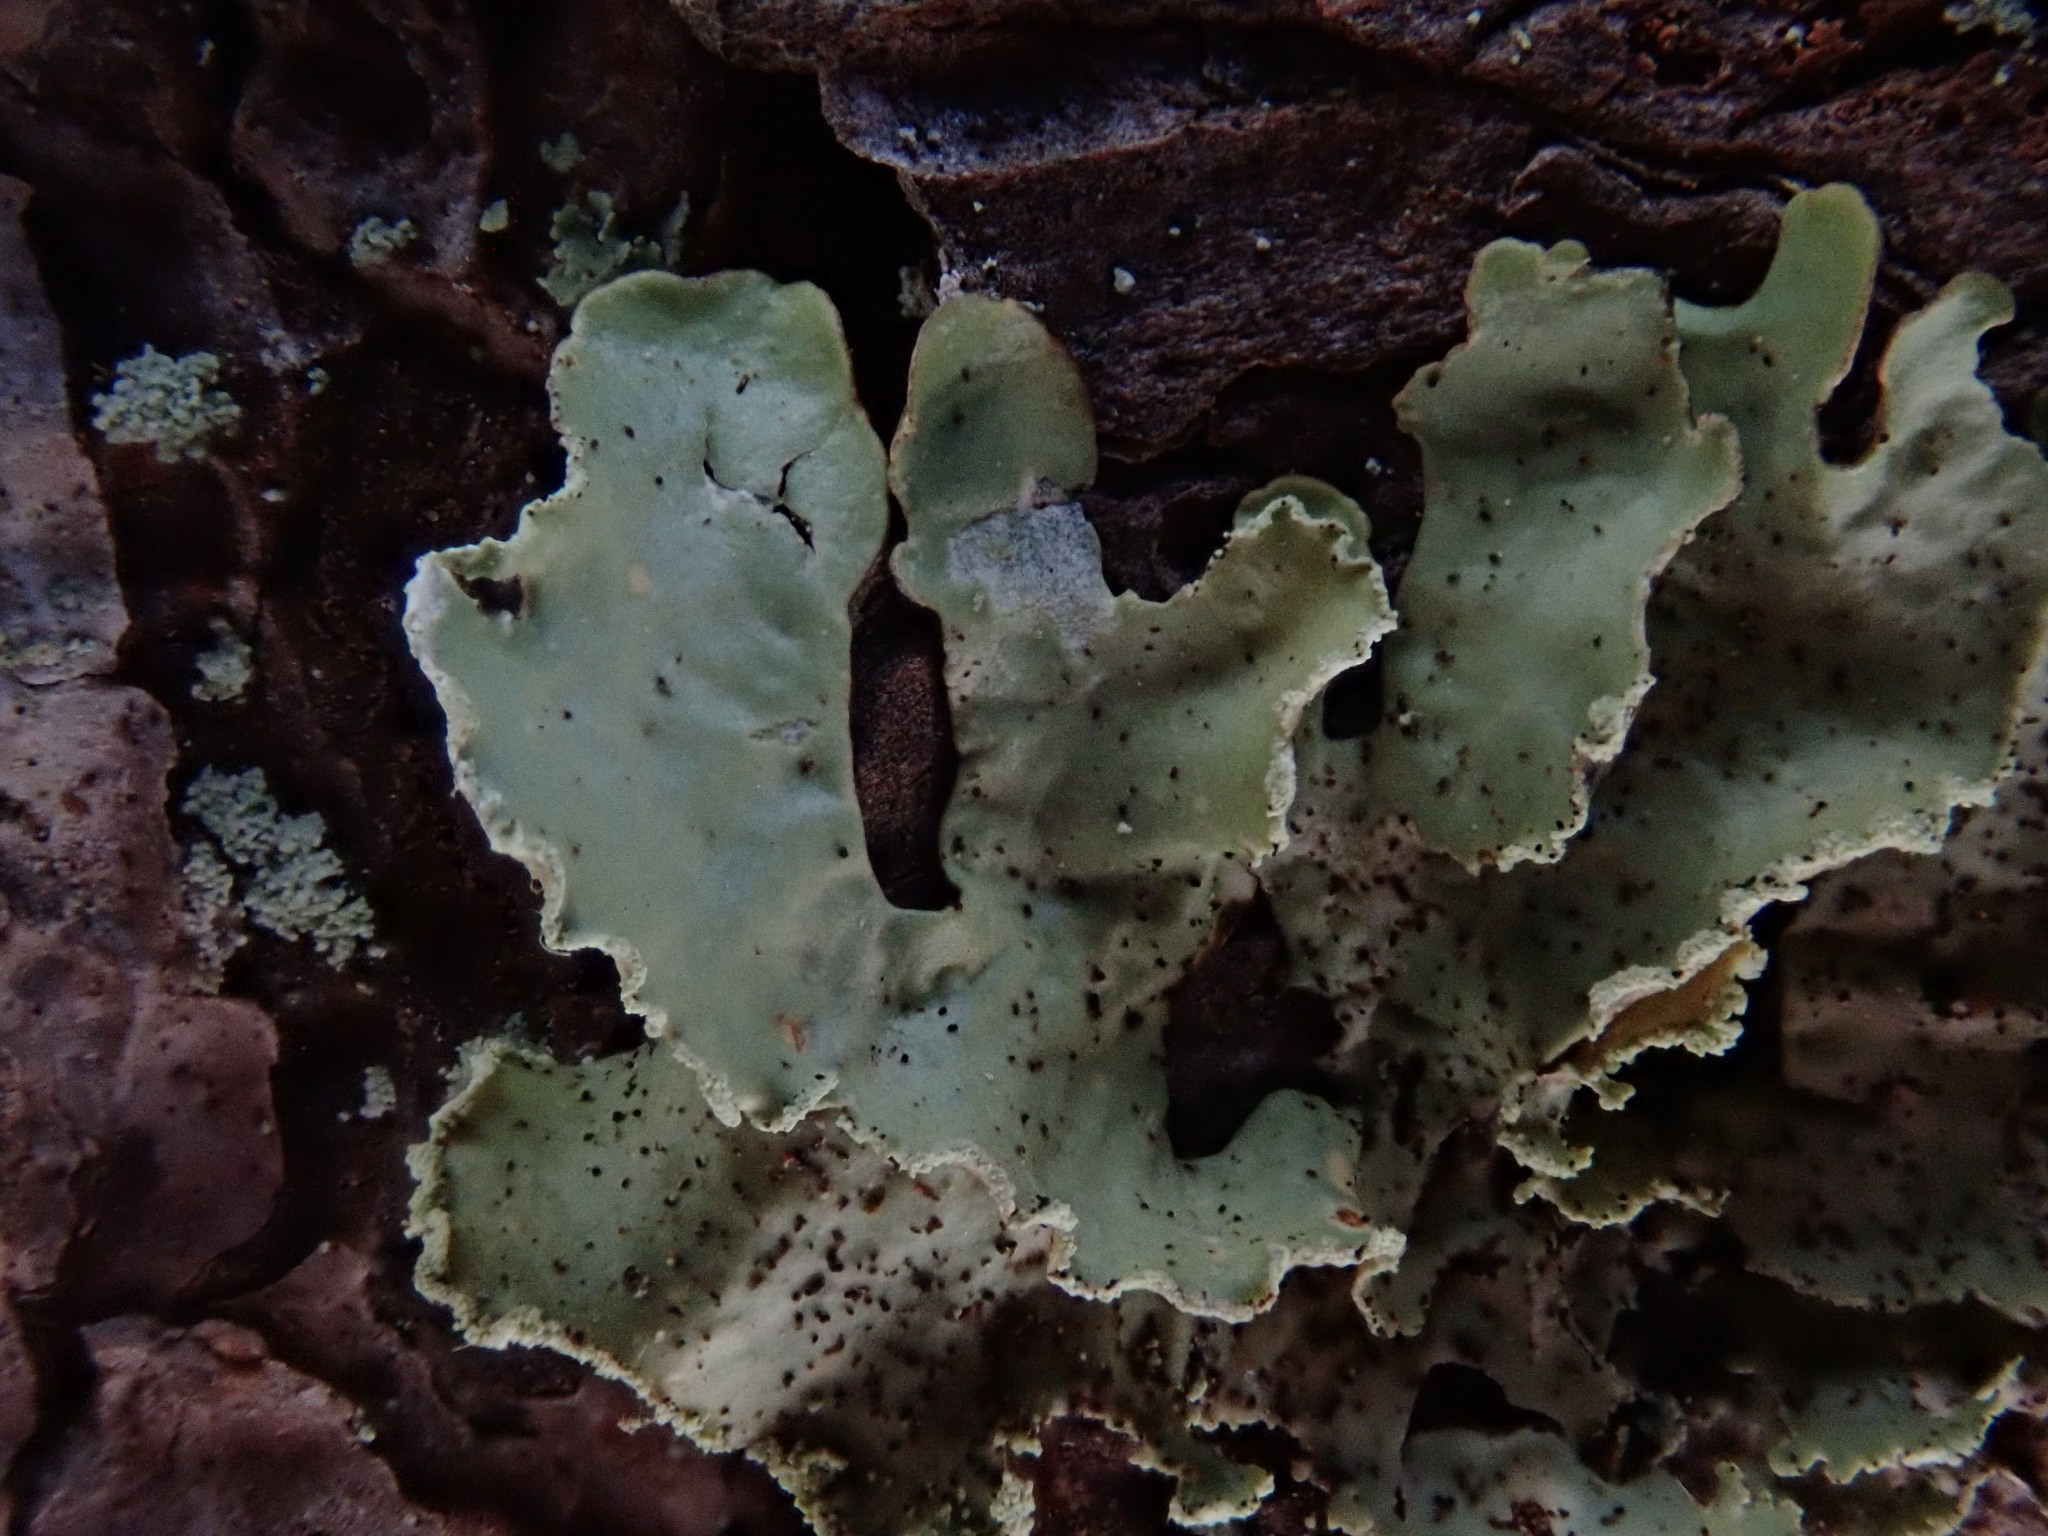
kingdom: Fungi
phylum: Ascomycota
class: Lecanoromycetes
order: Lecanorales
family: Parmeliaceae
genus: Usnocetraria
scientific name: Usnocetraria oakesiana
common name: Yellow ribbon lichen
